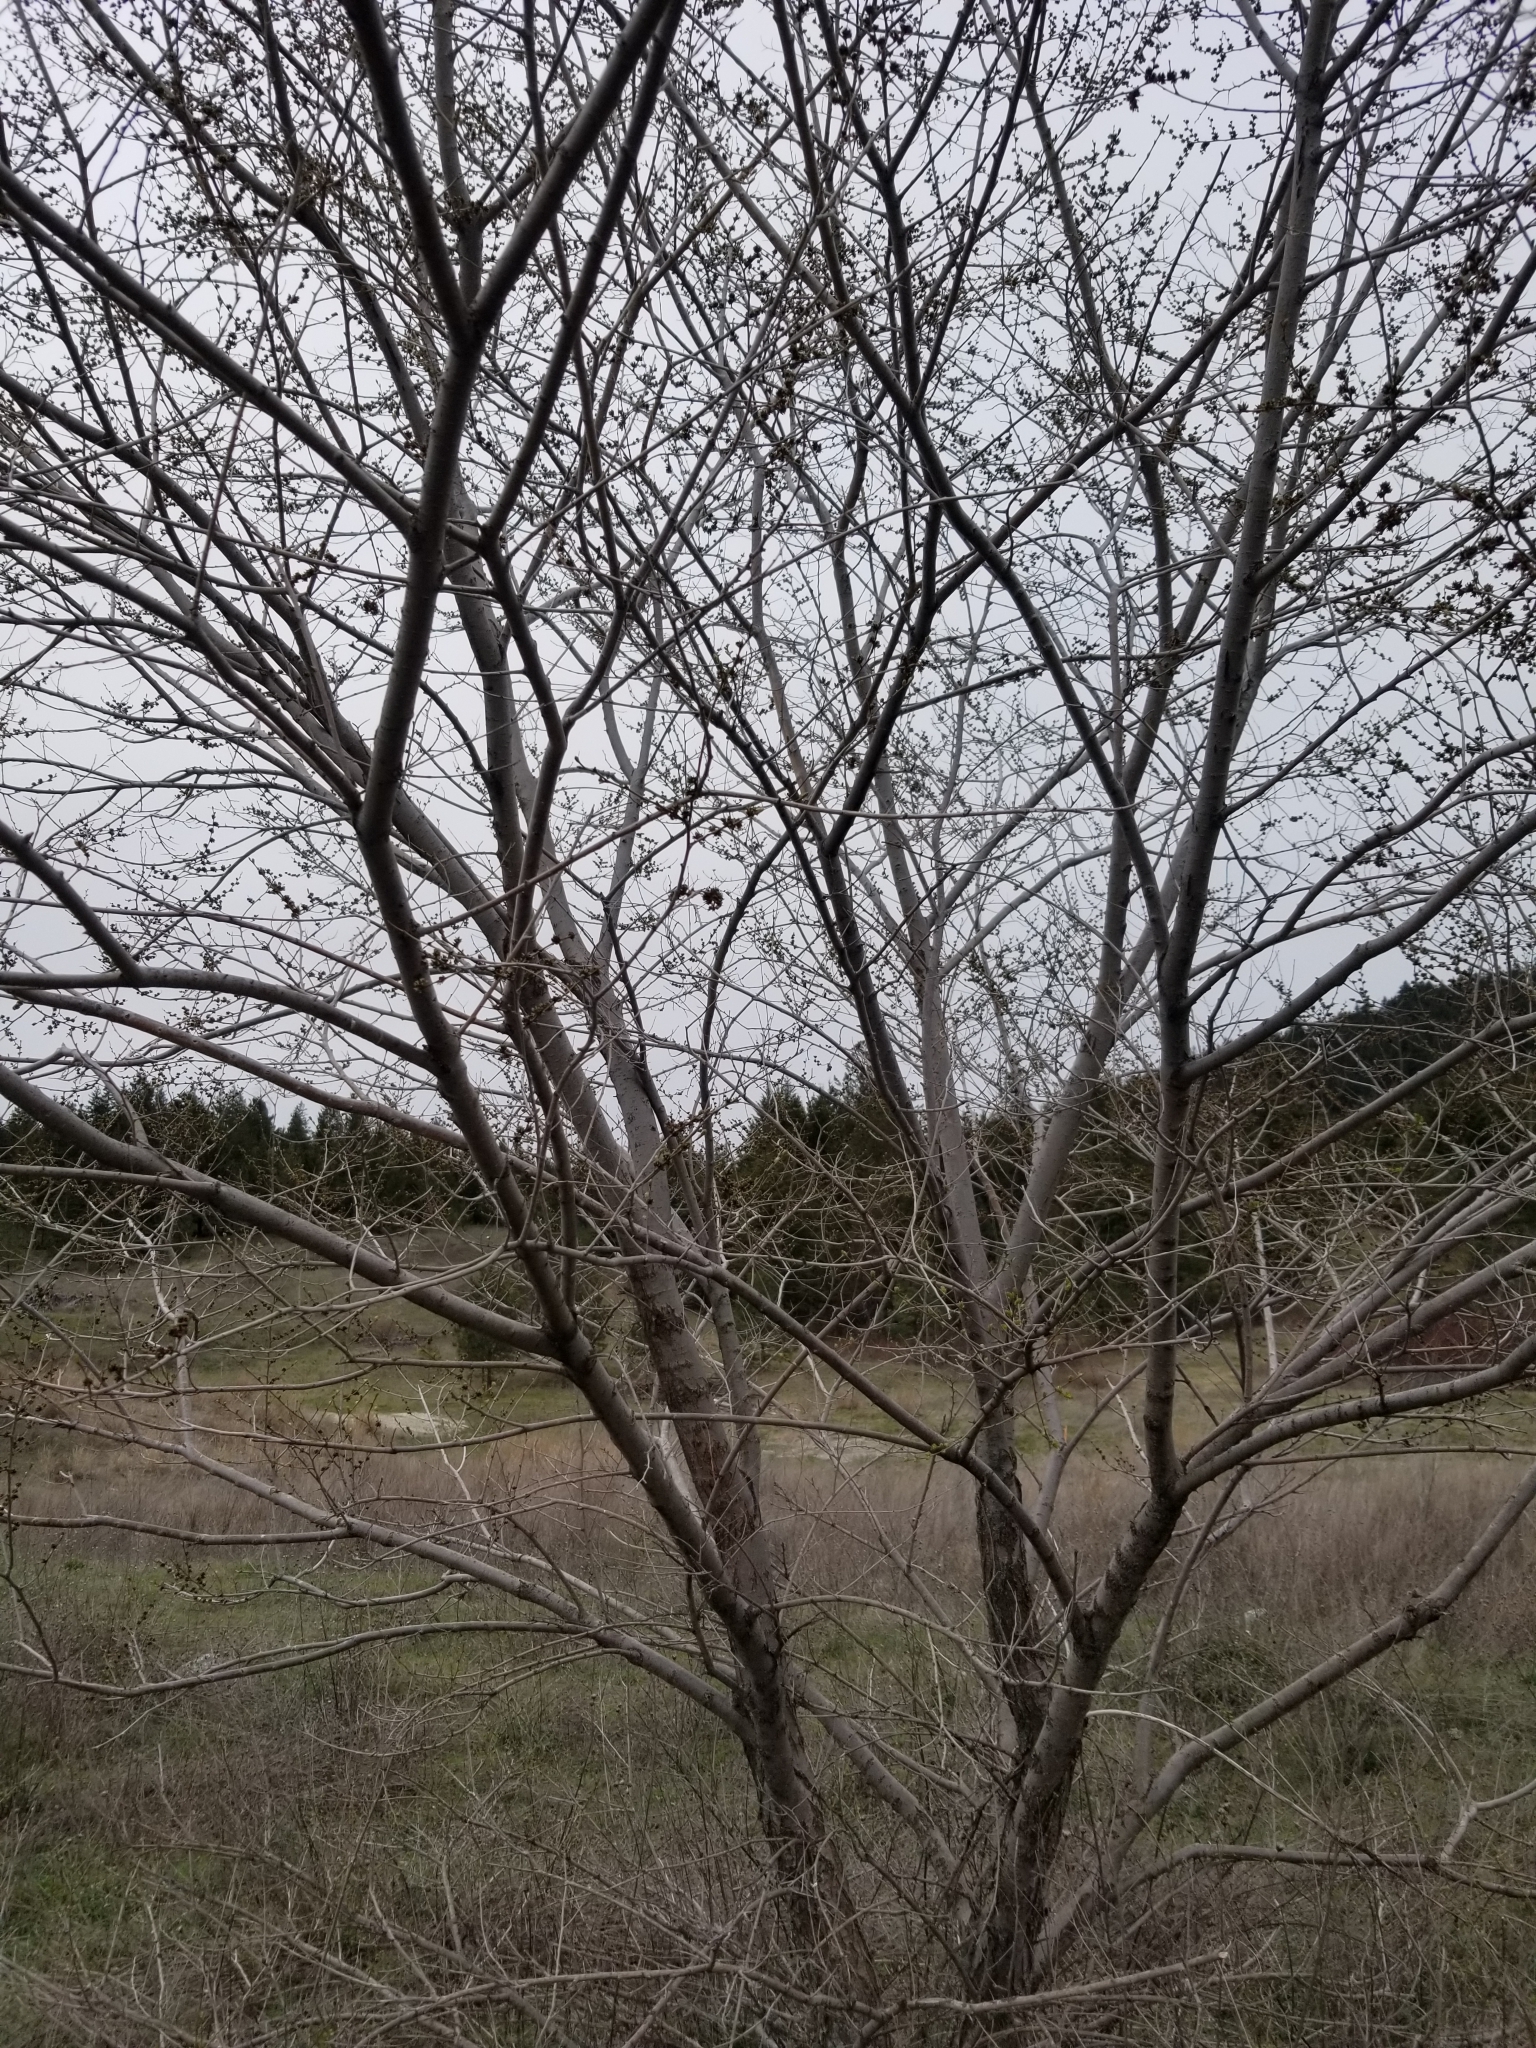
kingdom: Plantae
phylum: Tracheophyta
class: Magnoliopsida
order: Rosales
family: Ulmaceae
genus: Ulmus
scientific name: Ulmus pumila
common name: Siberian elm
